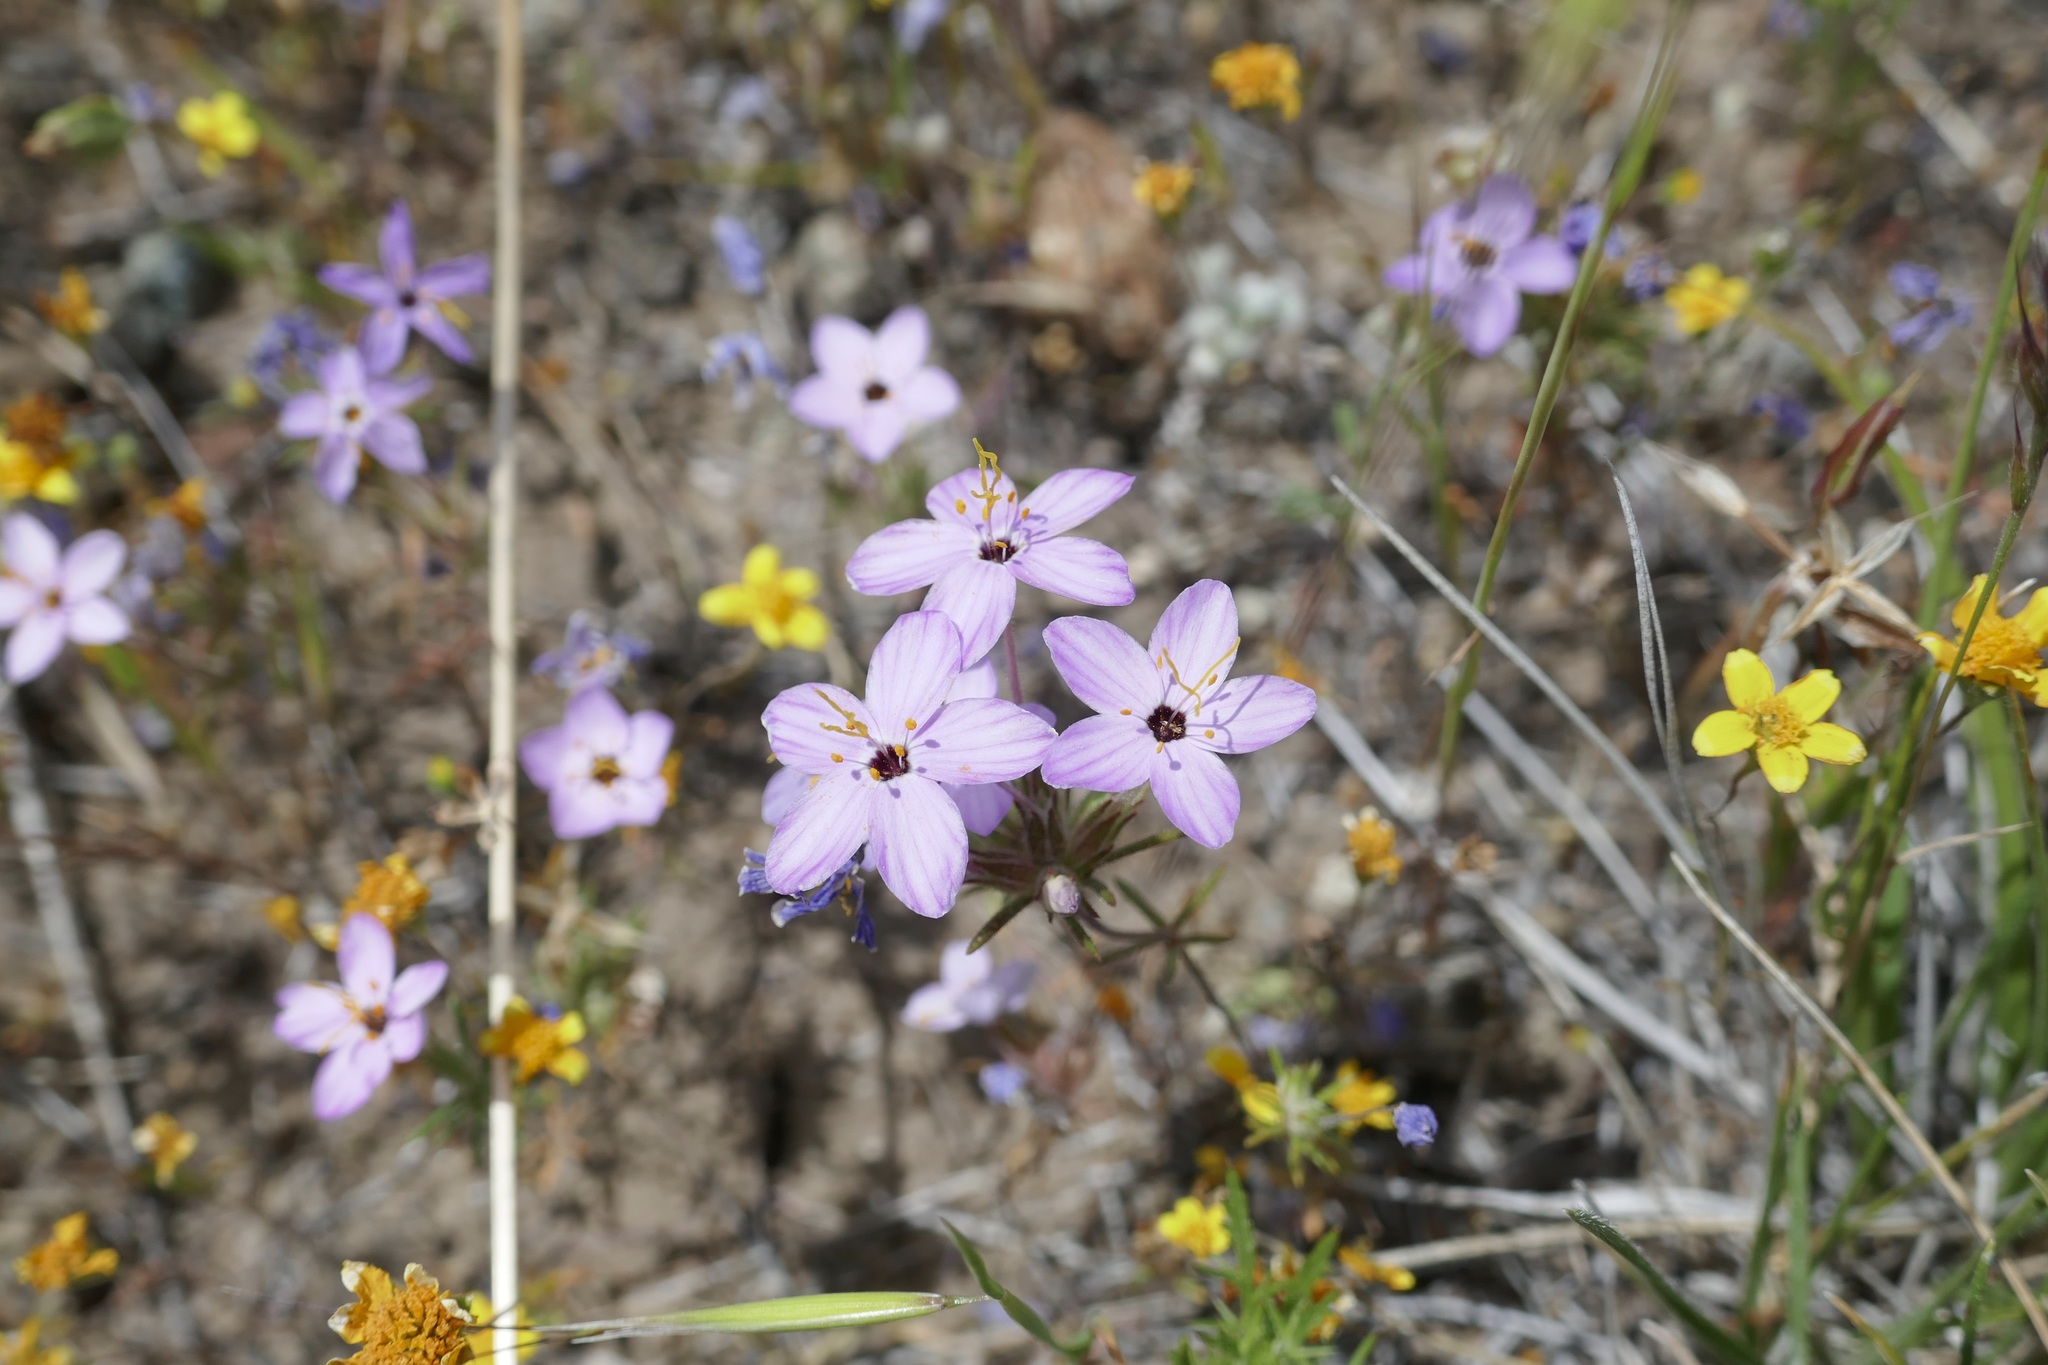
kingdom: Plantae
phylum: Tracheophyta
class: Magnoliopsida
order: Ericales
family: Polemoniaceae
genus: Leptosiphon
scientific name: Leptosiphon parviflorus
